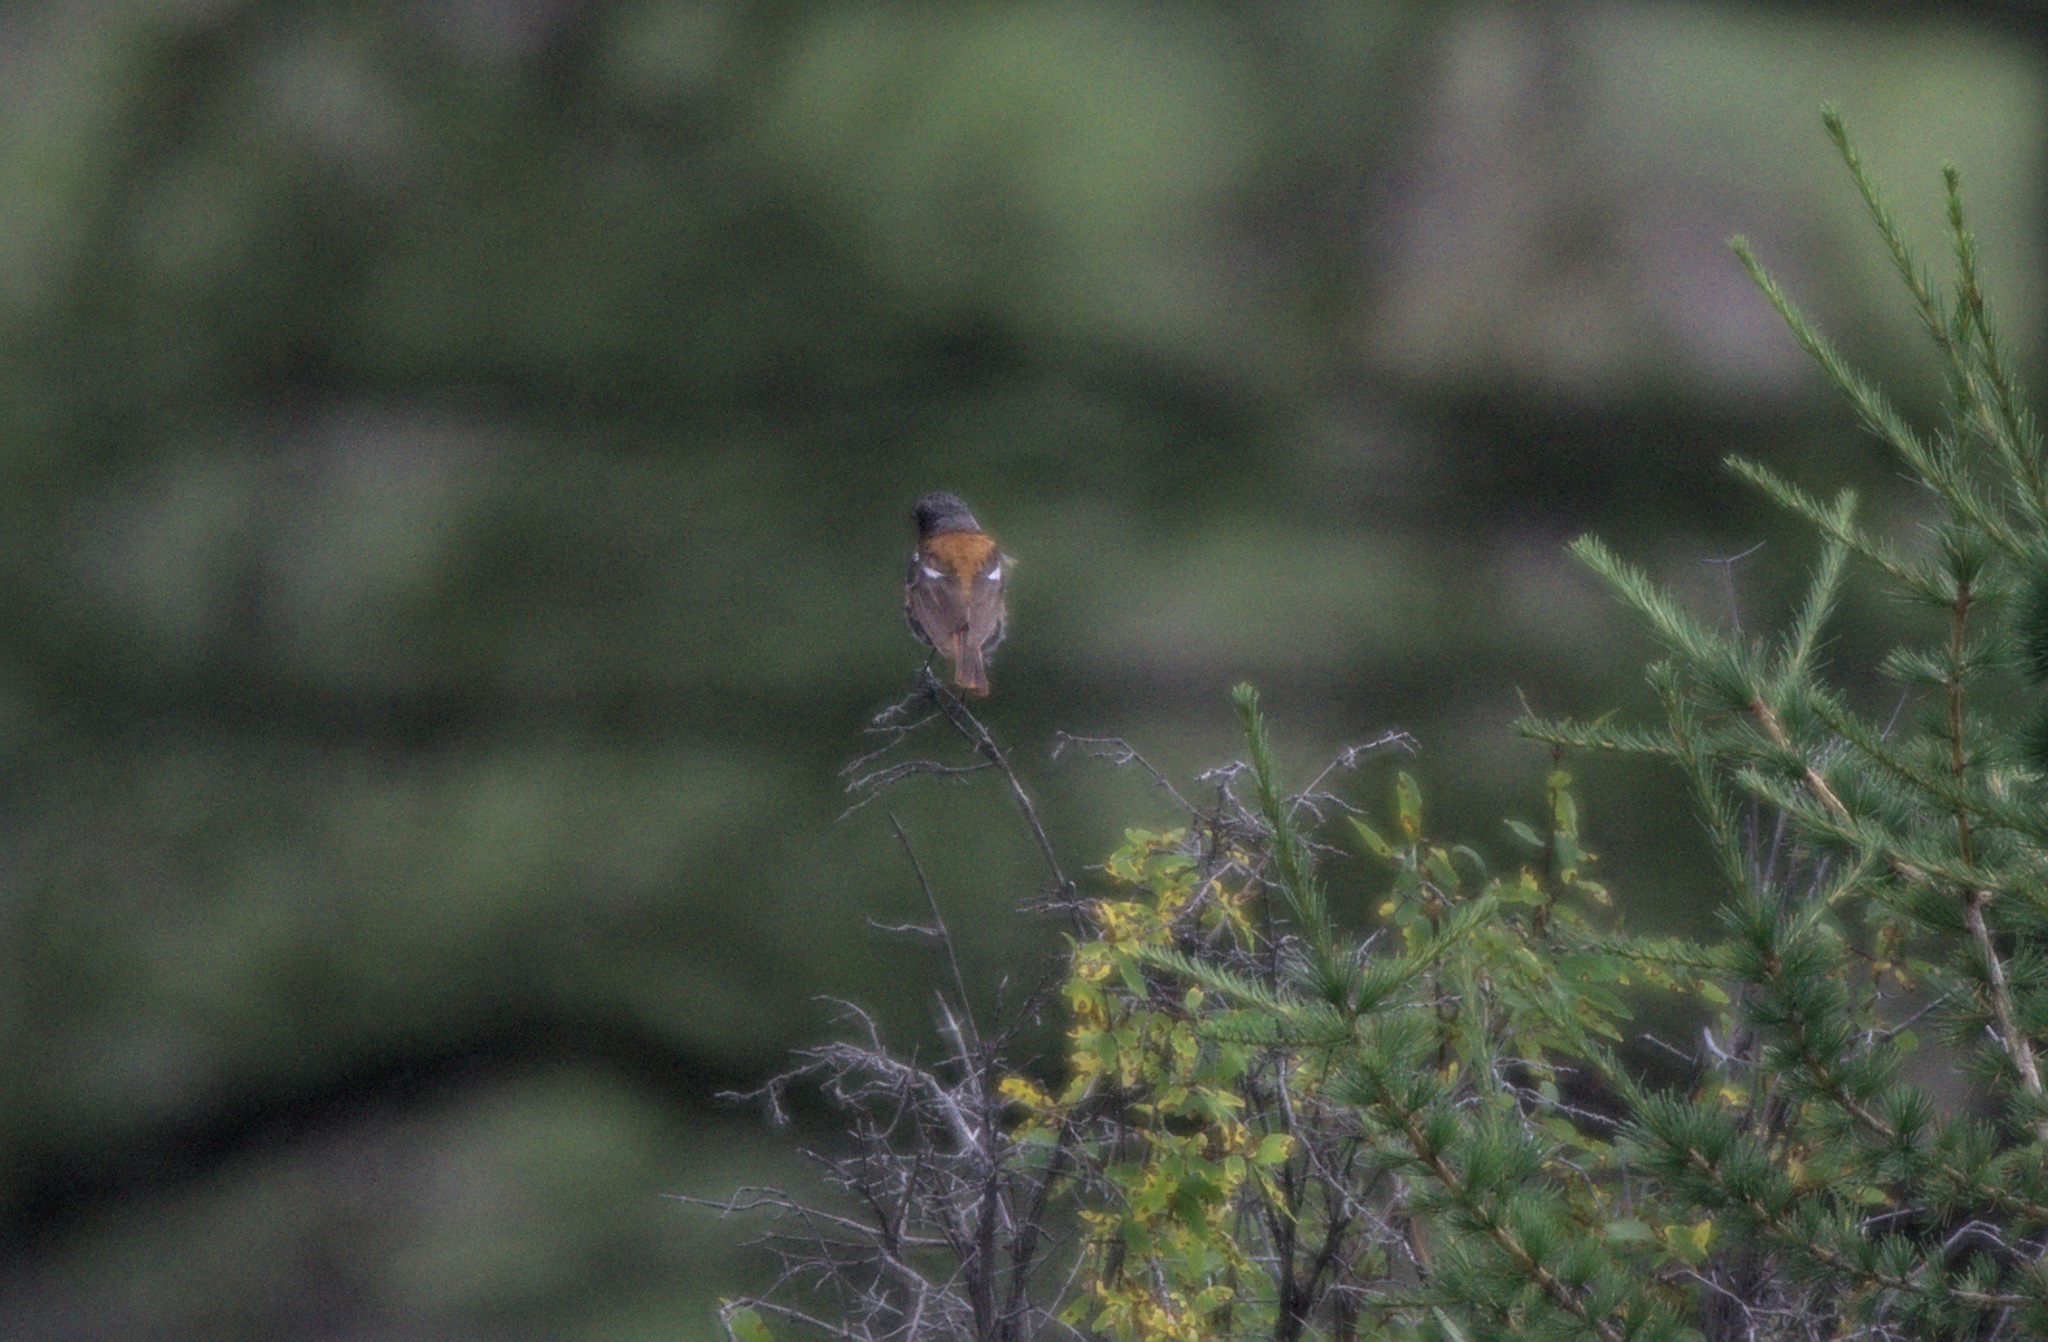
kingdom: Animalia
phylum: Chordata
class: Aves
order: Passeriformes
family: Muscicapidae
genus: Phoenicurus
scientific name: Phoenicurus erythronotus
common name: Eversmann's redstart
